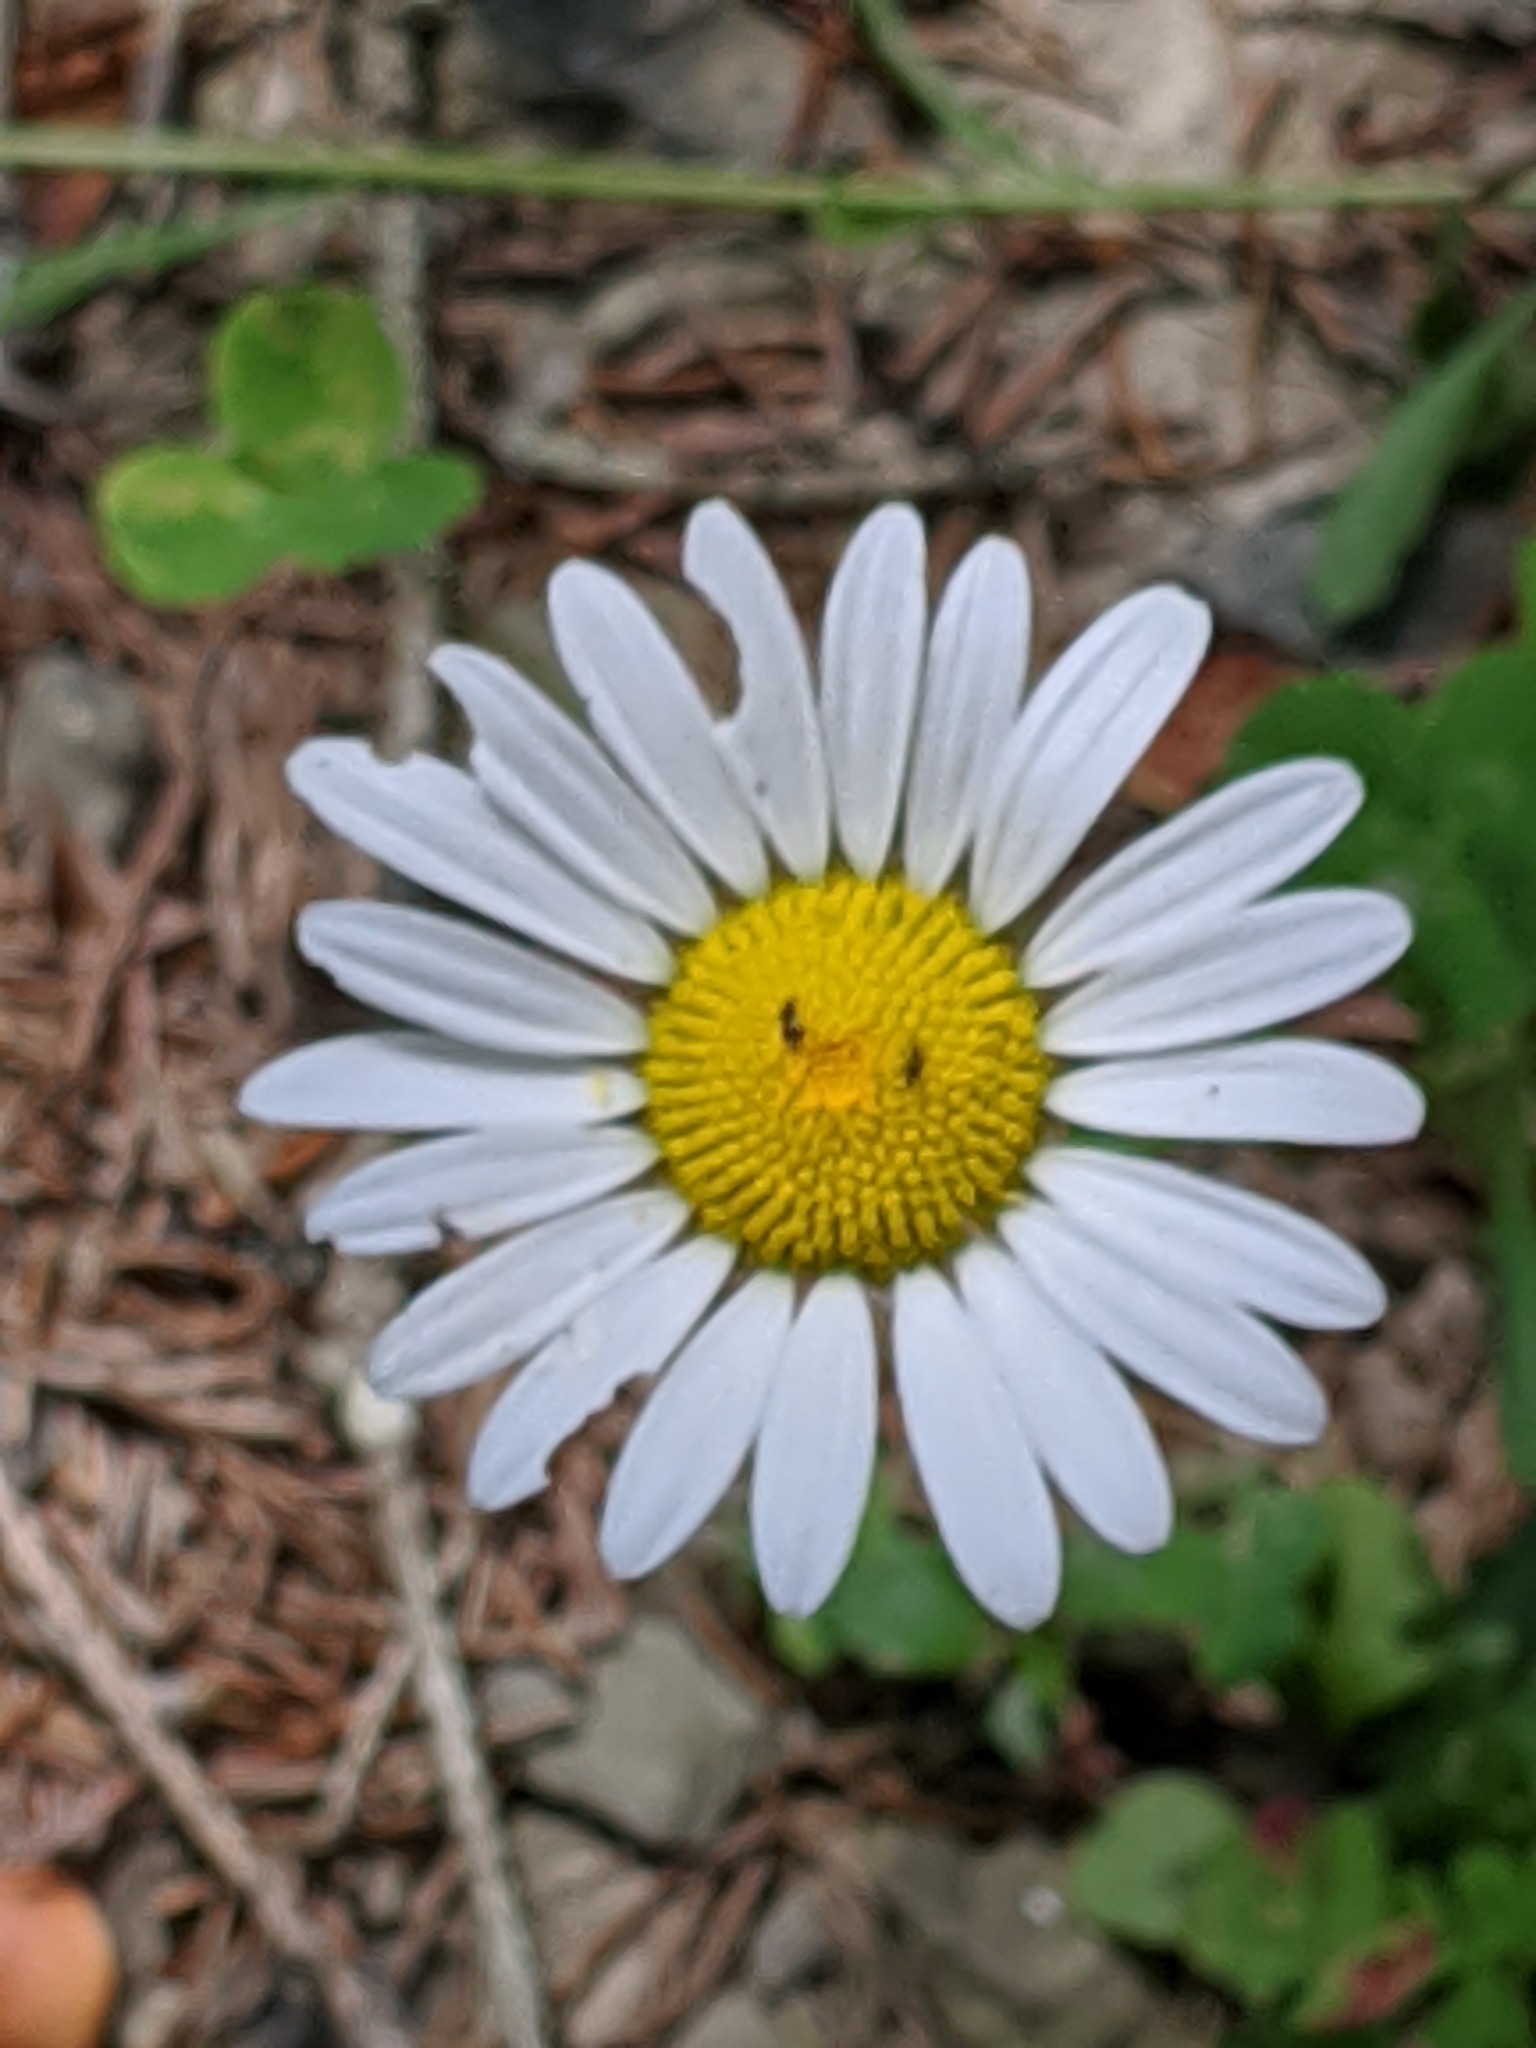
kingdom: Plantae
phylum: Tracheophyta
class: Magnoliopsida
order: Asterales
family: Asteraceae
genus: Leucanthemum
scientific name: Leucanthemum vulgare
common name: Oxeye daisy
